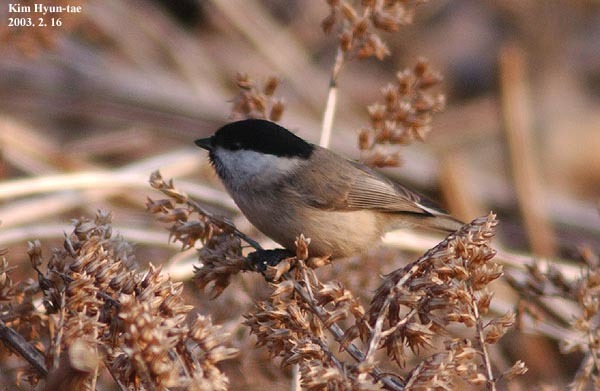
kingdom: Animalia
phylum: Chordata
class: Aves
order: Passeriformes
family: Paridae
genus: Poecile
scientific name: Poecile palustris
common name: Marsh tit
